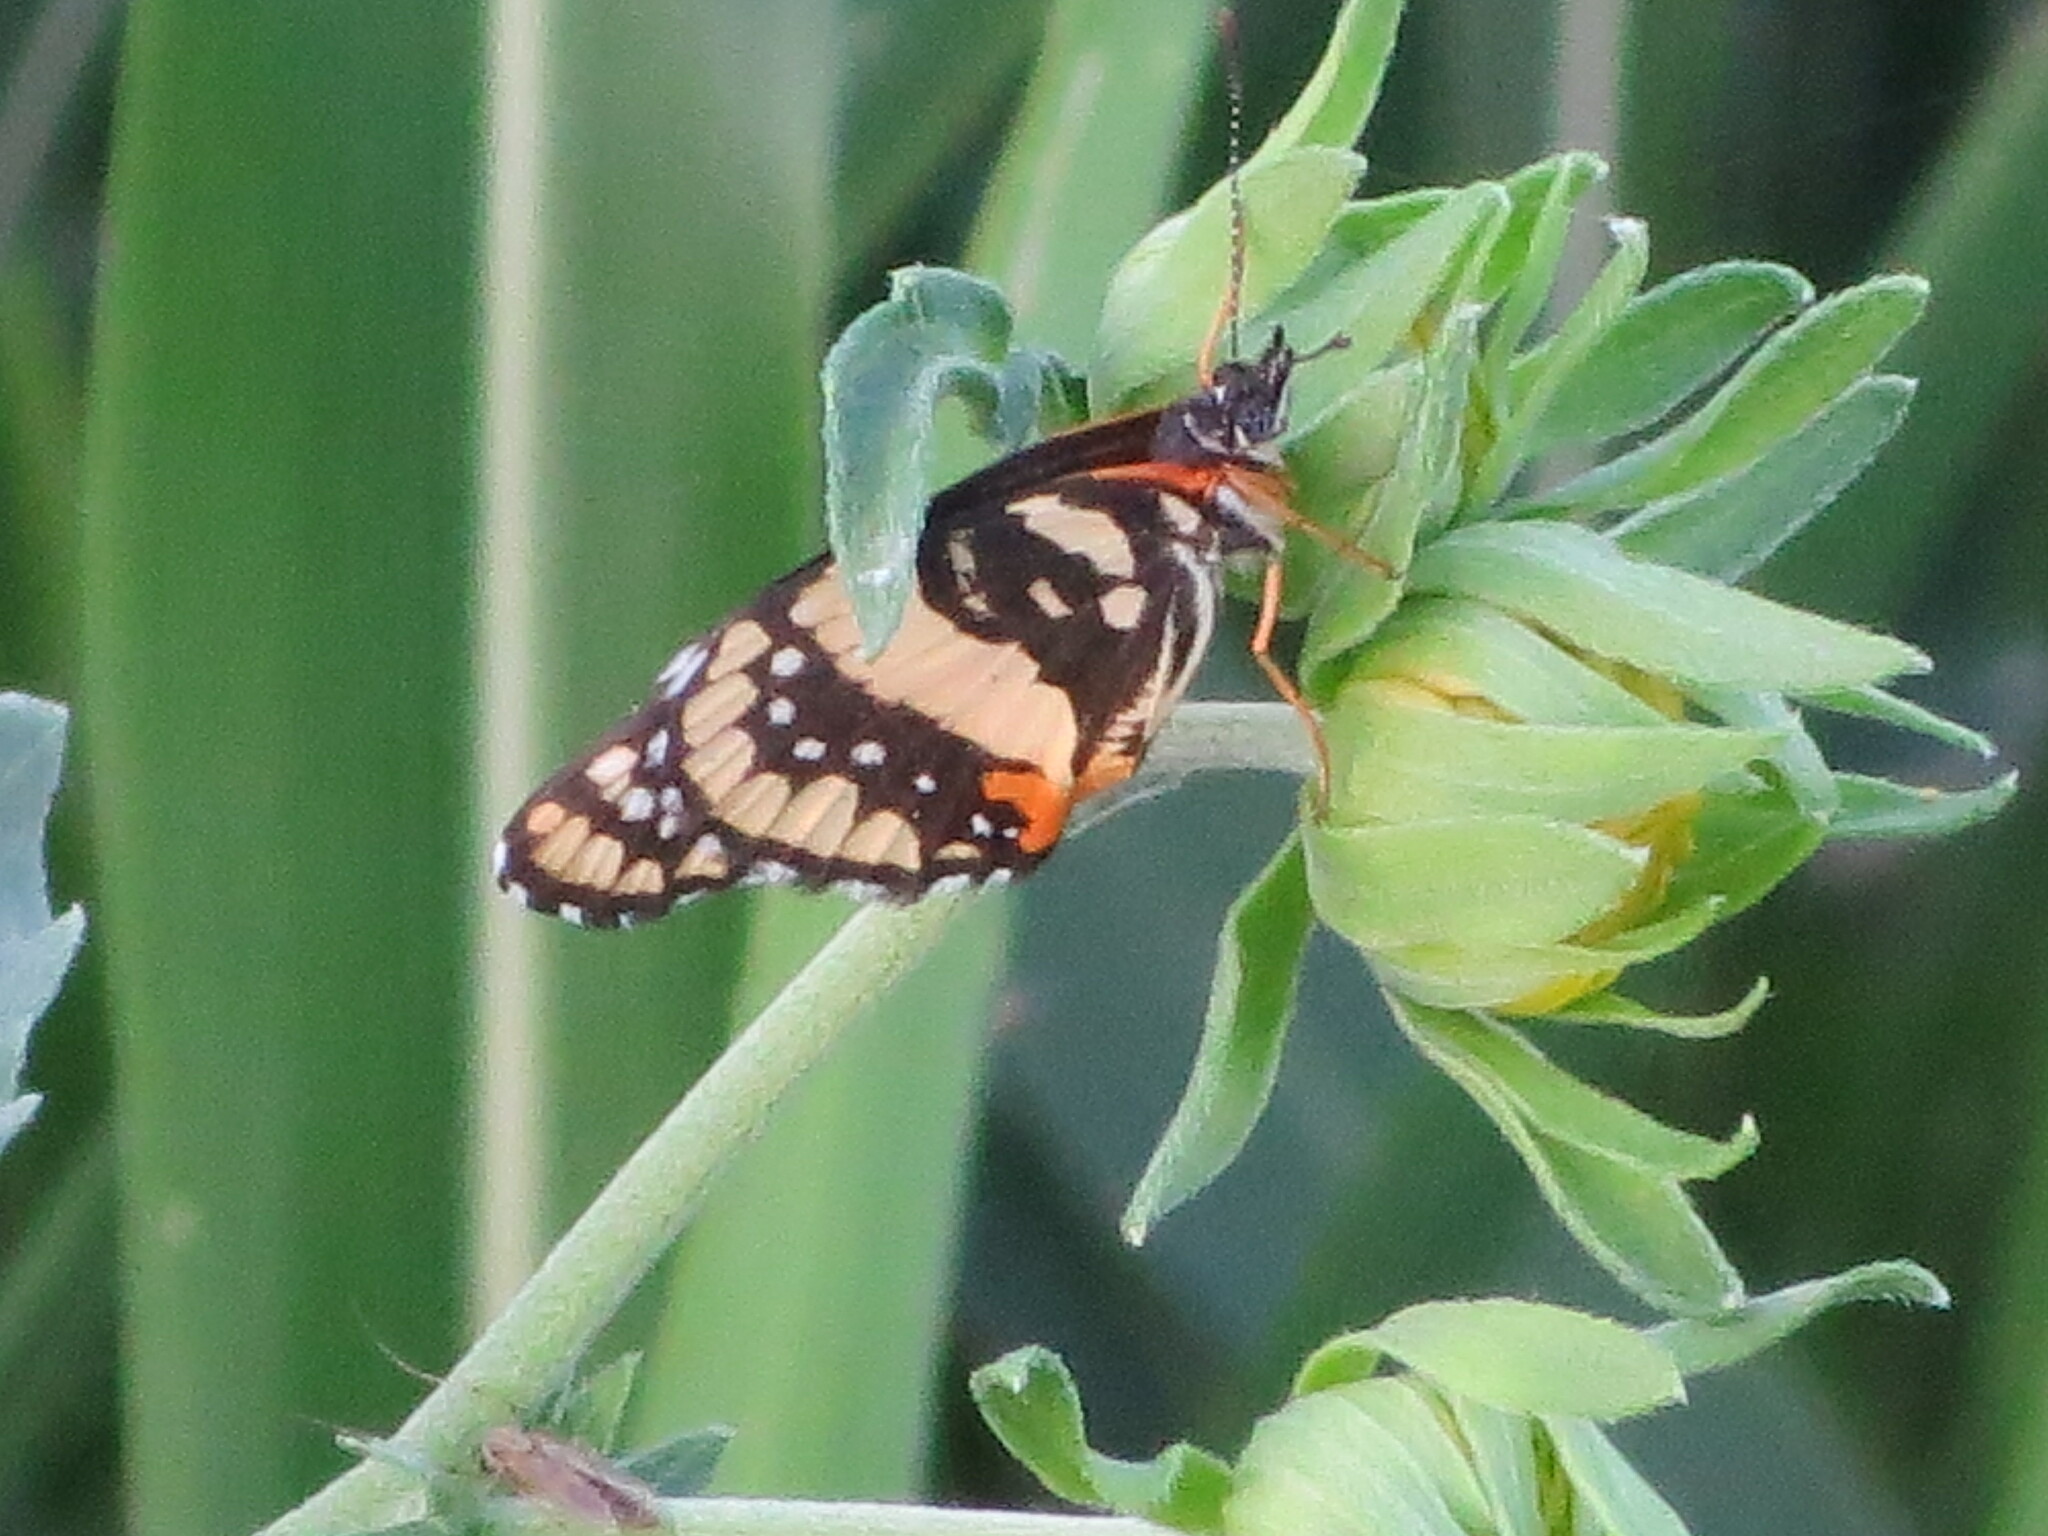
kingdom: Animalia
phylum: Arthropoda
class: Insecta
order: Lepidoptera
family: Nymphalidae
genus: Chlosyne
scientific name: Chlosyne lacinia
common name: Bordered patch
